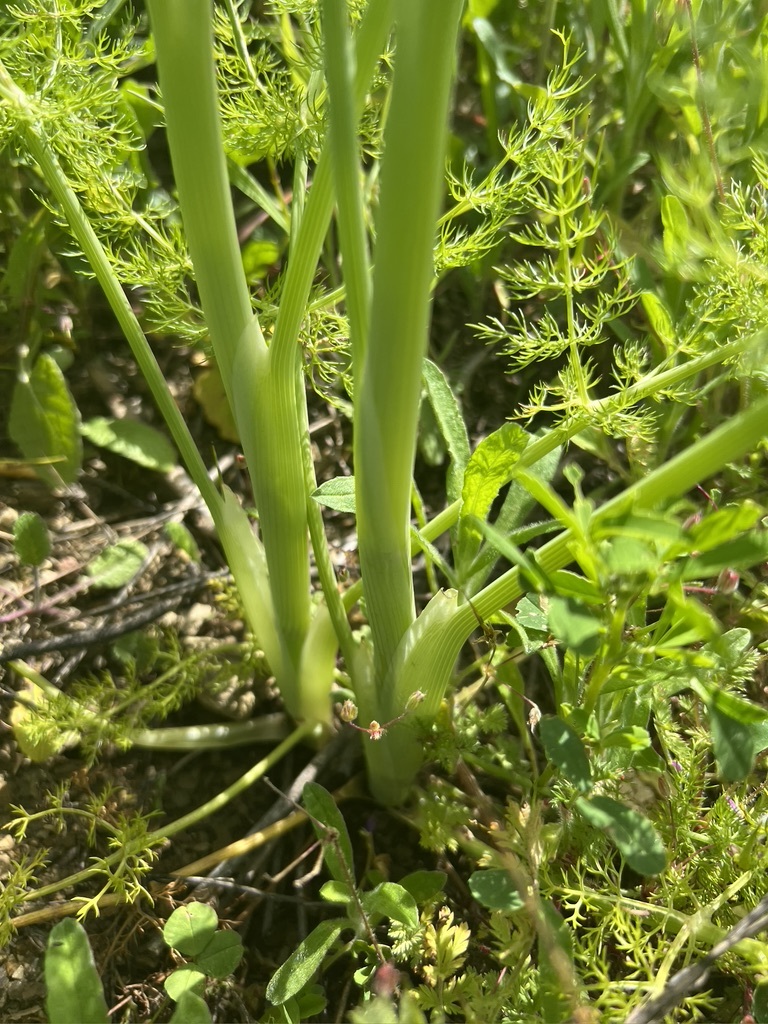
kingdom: Plantae
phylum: Tracheophyta
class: Magnoliopsida
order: Apiales
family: Apiaceae
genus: Foeniculum
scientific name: Foeniculum vulgare
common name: Fennel
